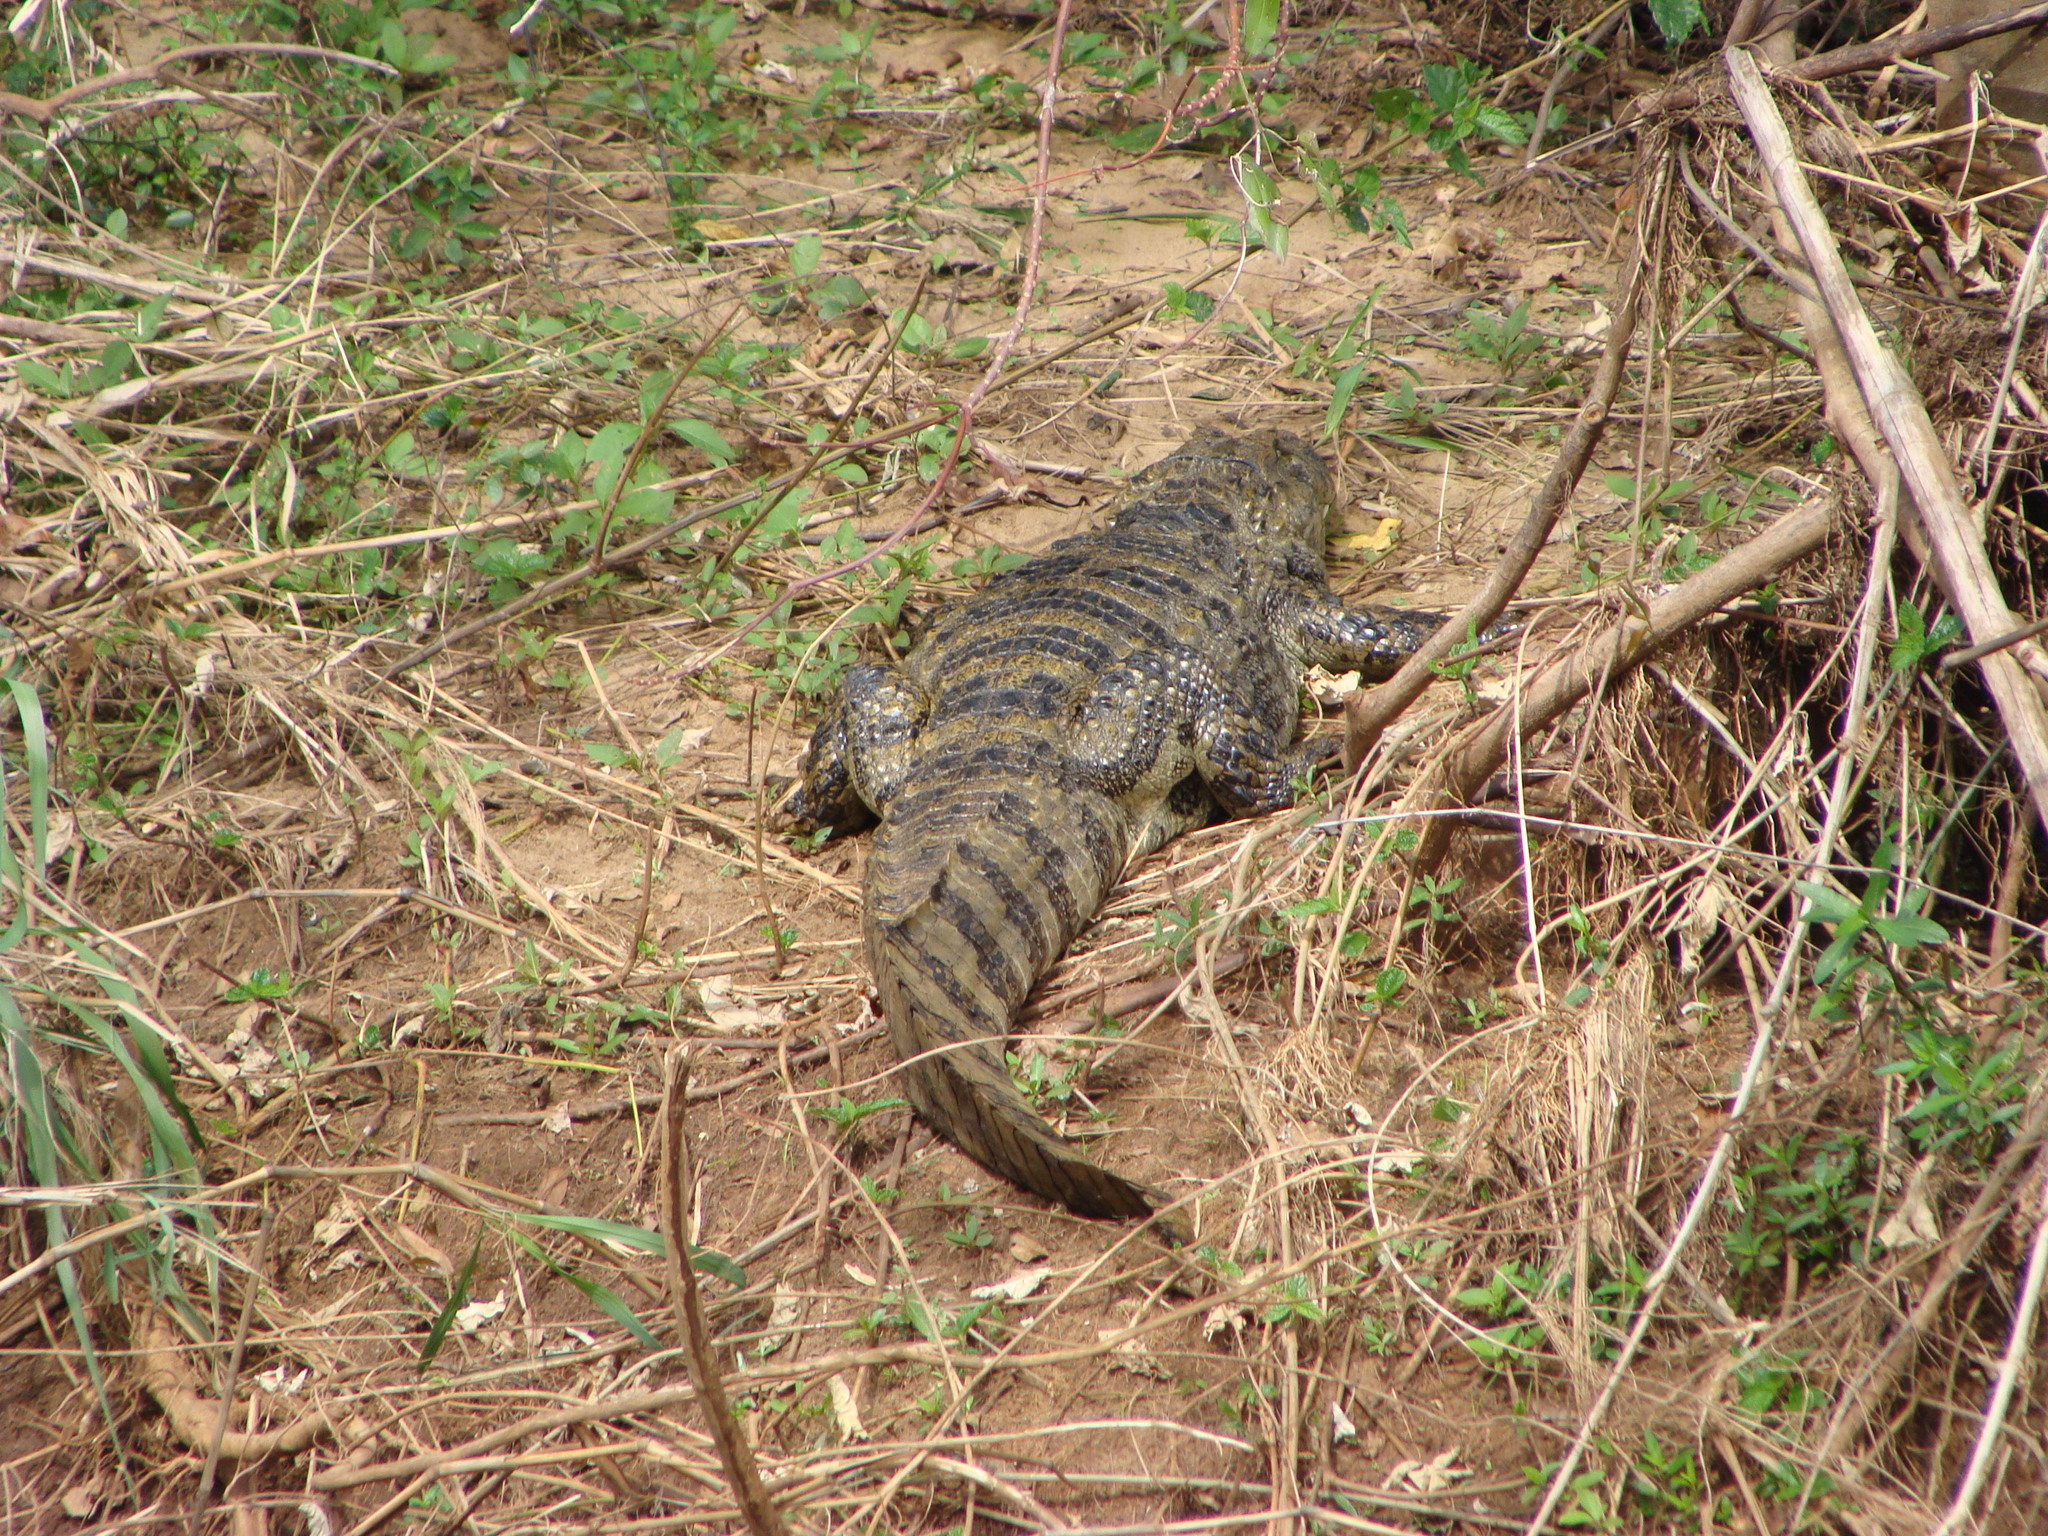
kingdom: Animalia
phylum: Chordata
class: Crocodylia
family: Alligatoridae
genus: Caiman
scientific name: Caiman latirostris
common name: Broad-snouted caiman
